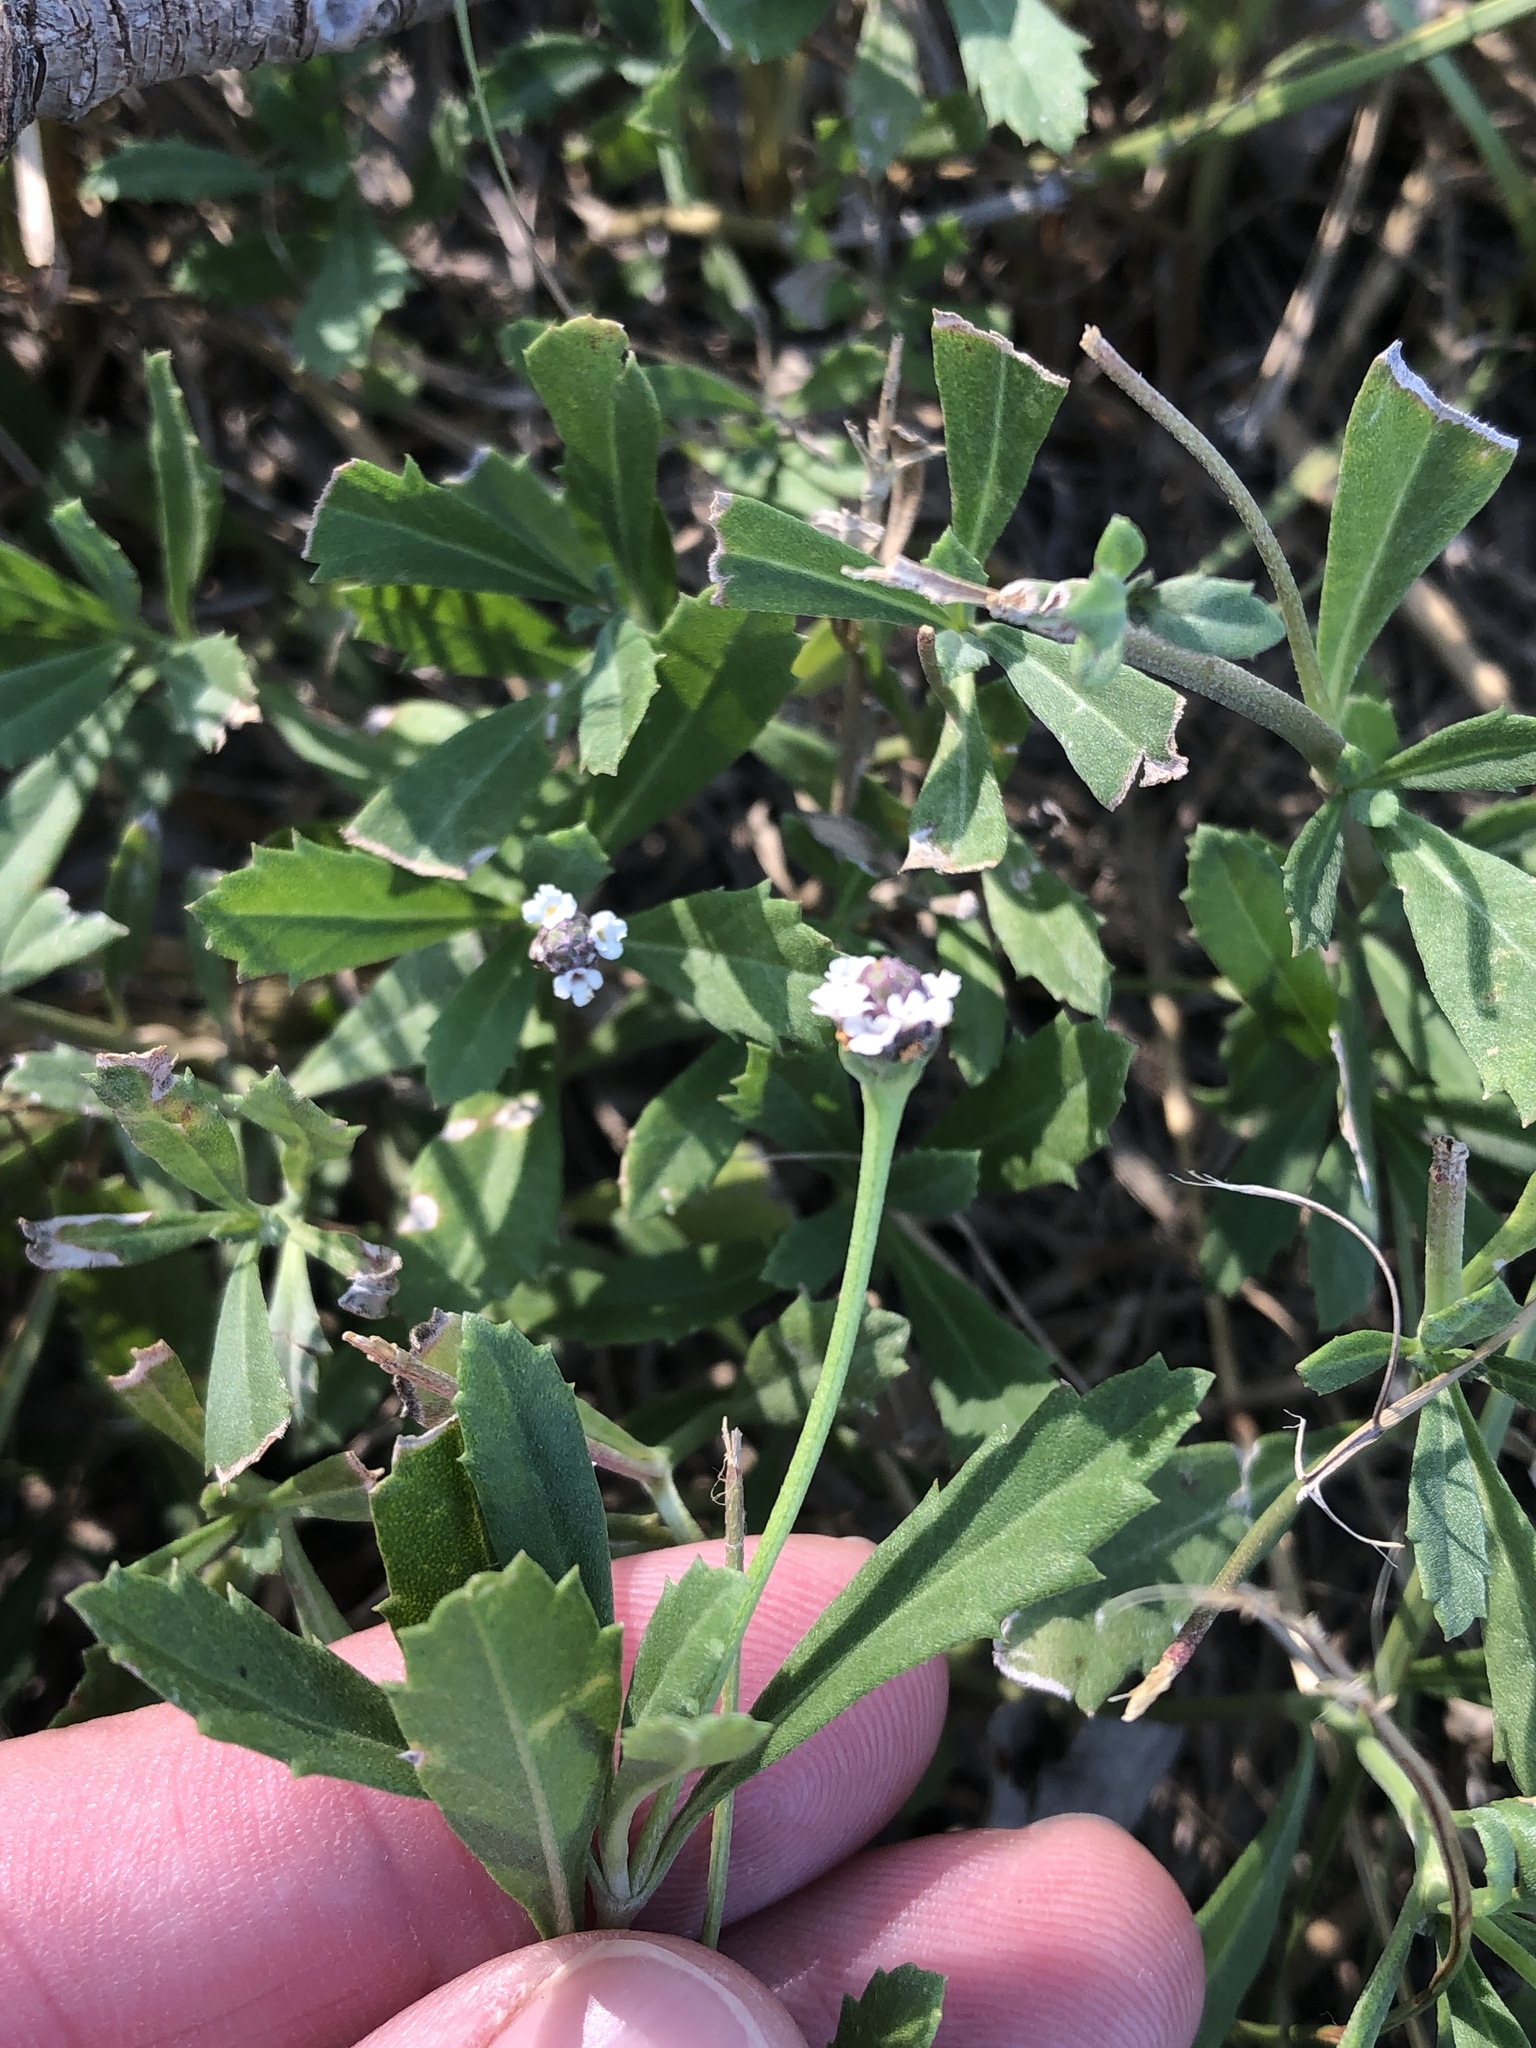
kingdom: Plantae
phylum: Tracheophyta
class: Magnoliopsida
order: Lamiales
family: Verbenaceae
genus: Phyla
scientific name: Phyla nodiflora
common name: Frogfruit
